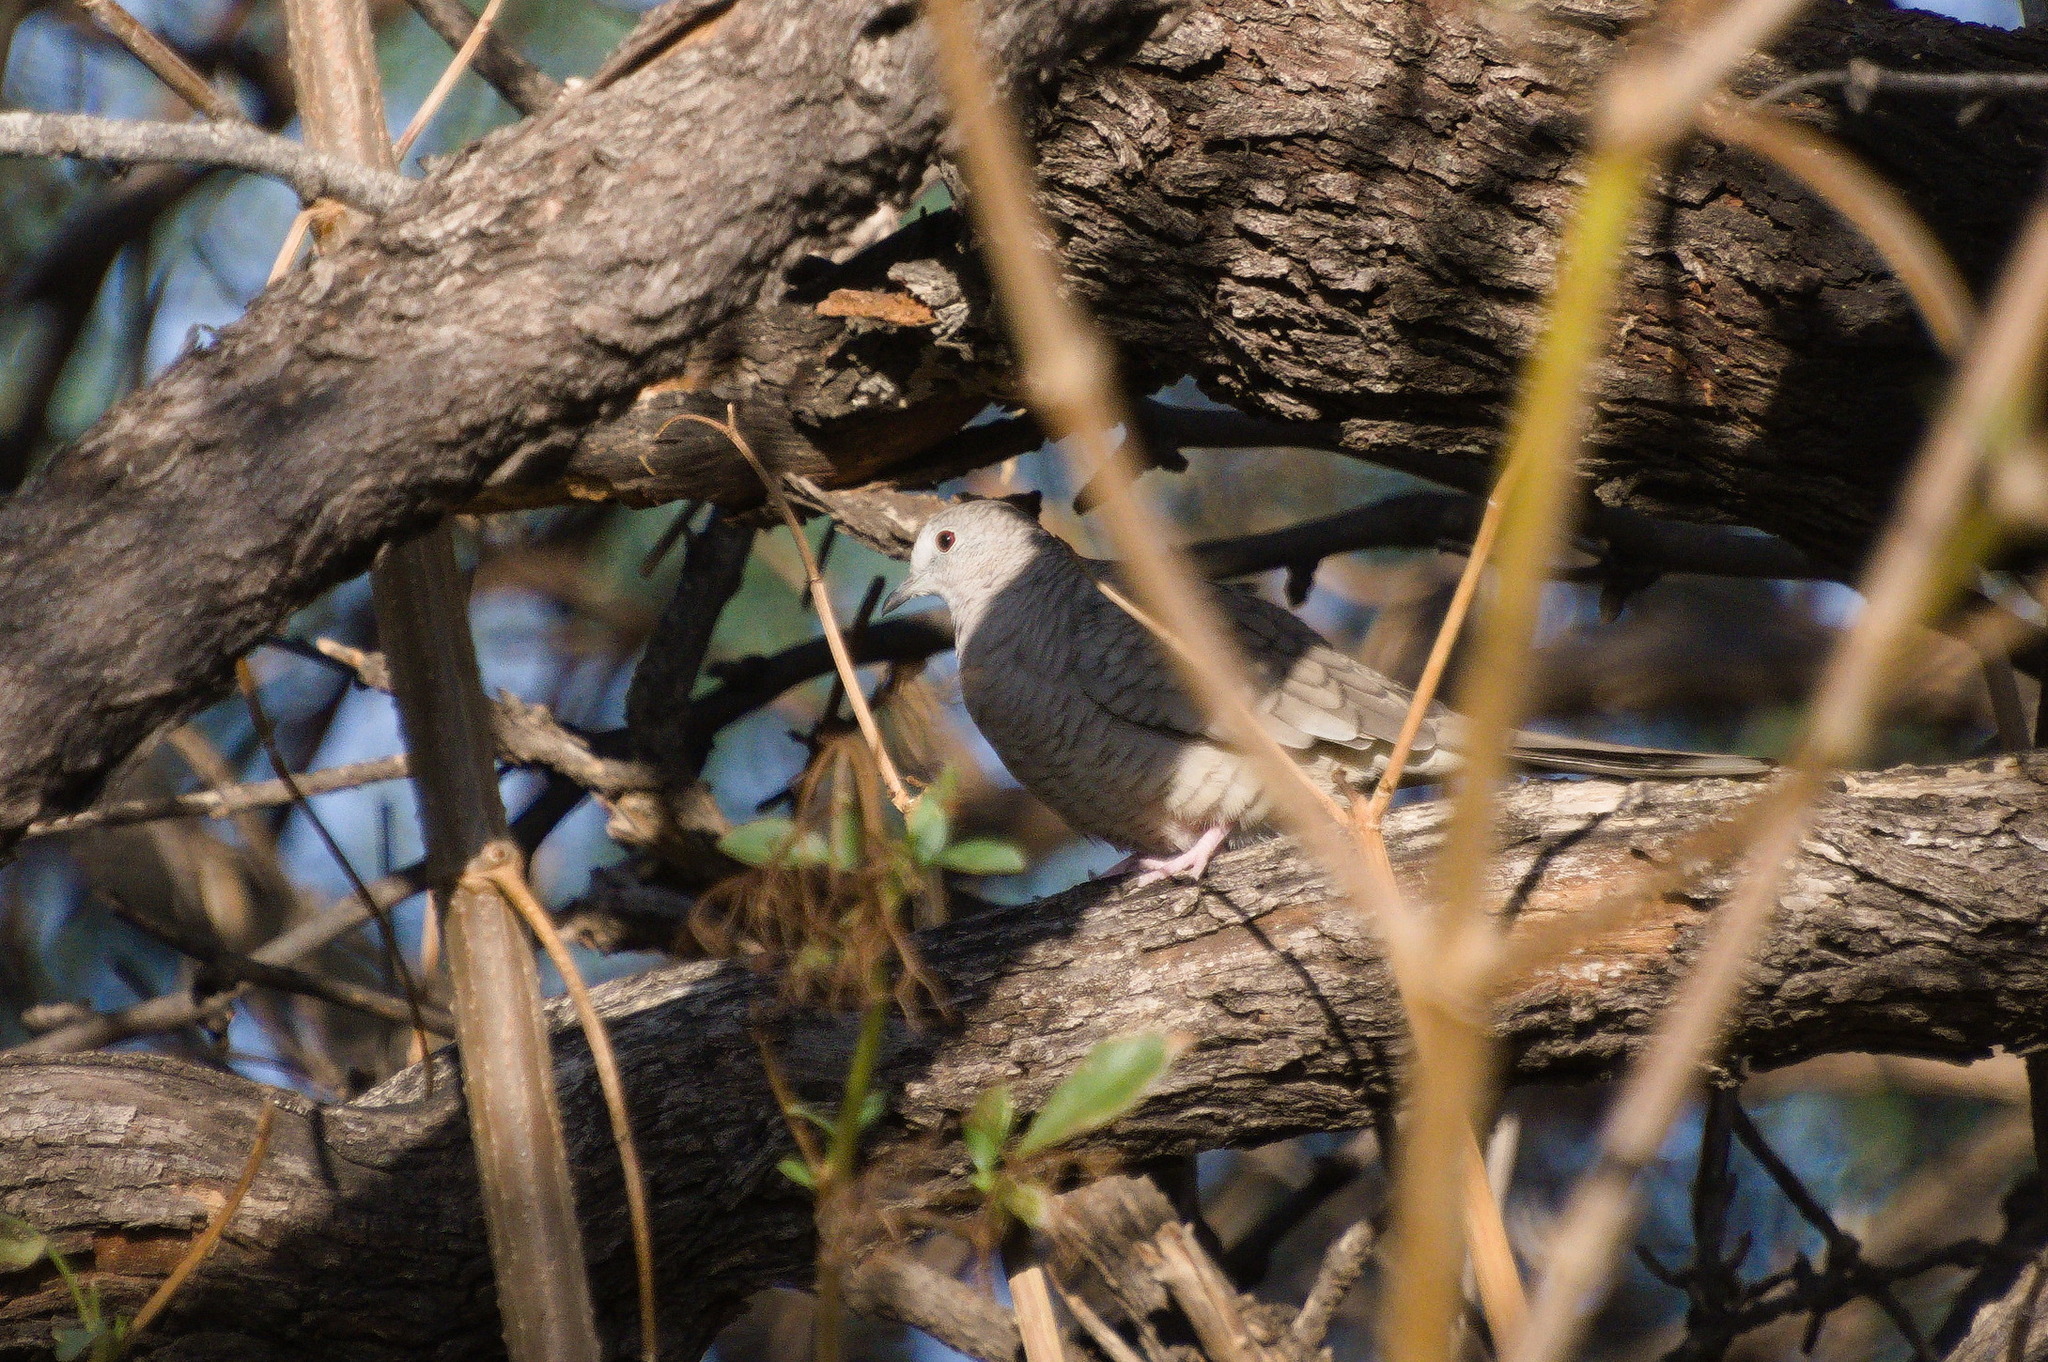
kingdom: Animalia
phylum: Chordata
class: Aves
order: Columbiformes
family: Columbidae
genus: Columbina
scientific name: Columbina inca
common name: Inca dove
